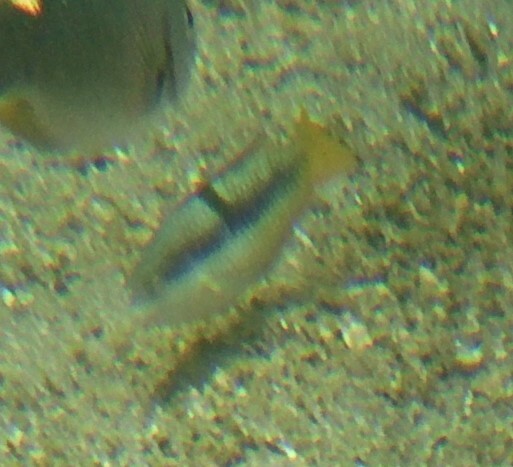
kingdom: Animalia
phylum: Chordata
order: Perciformes
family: Labridae
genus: Halichoeres
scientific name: Halichoeres nicholsi
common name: Spinster wrasse
